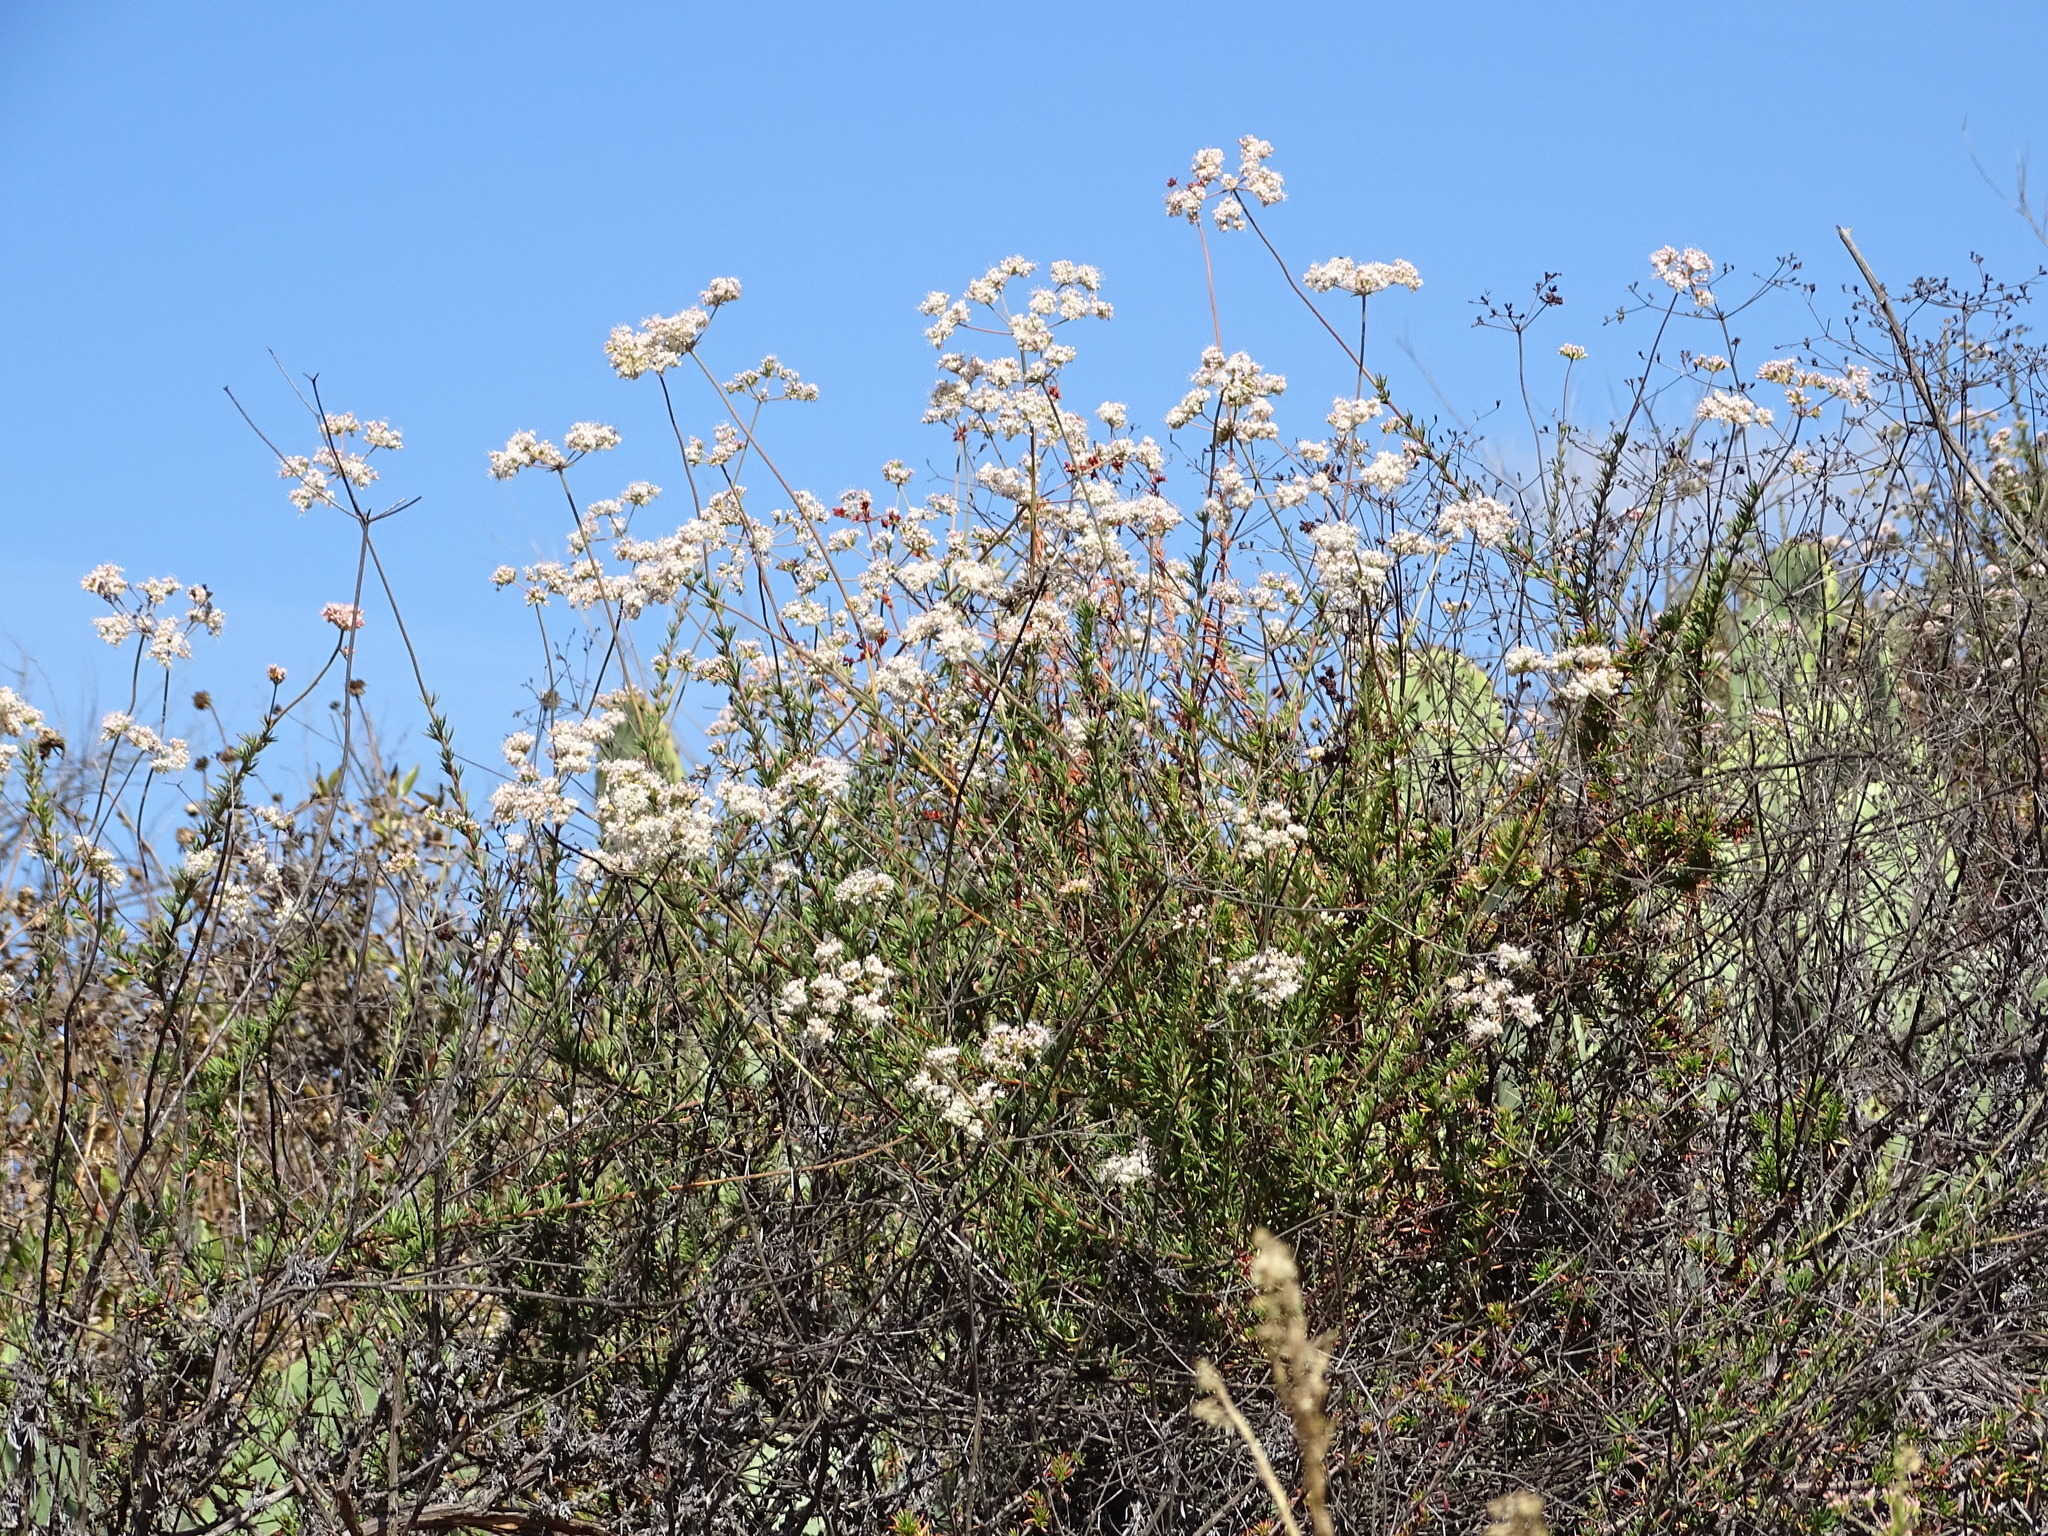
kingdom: Plantae
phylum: Tracheophyta
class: Magnoliopsida
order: Caryophyllales
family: Polygonaceae
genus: Eriogonum
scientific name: Eriogonum fasciculatum
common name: California wild buckwheat
